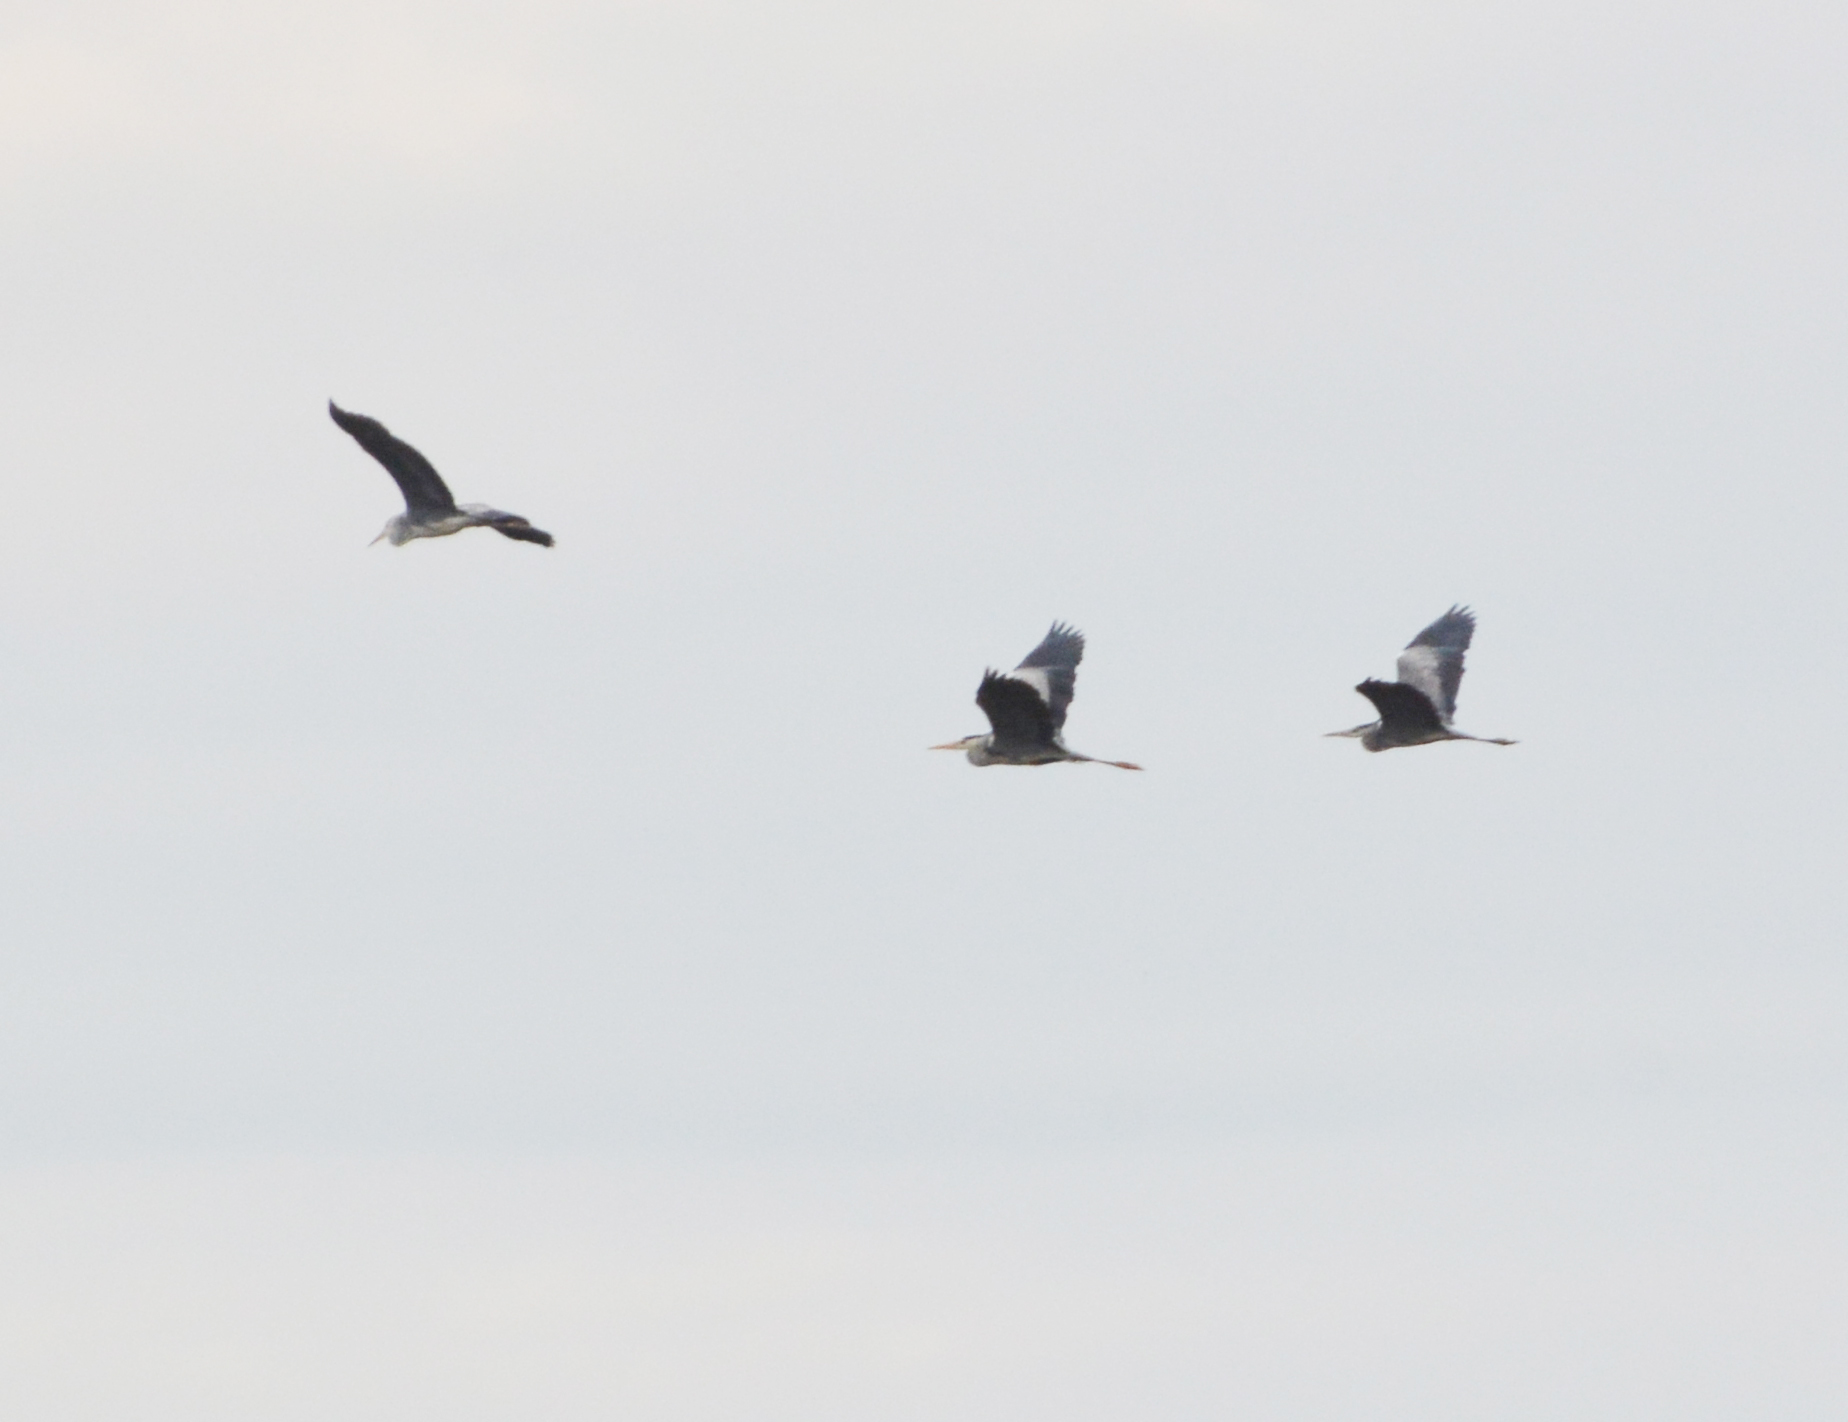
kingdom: Animalia
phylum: Chordata
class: Aves
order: Pelecaniformes
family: Ardeidae
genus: Ardea
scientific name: Ardea cinerea
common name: Grey heron
